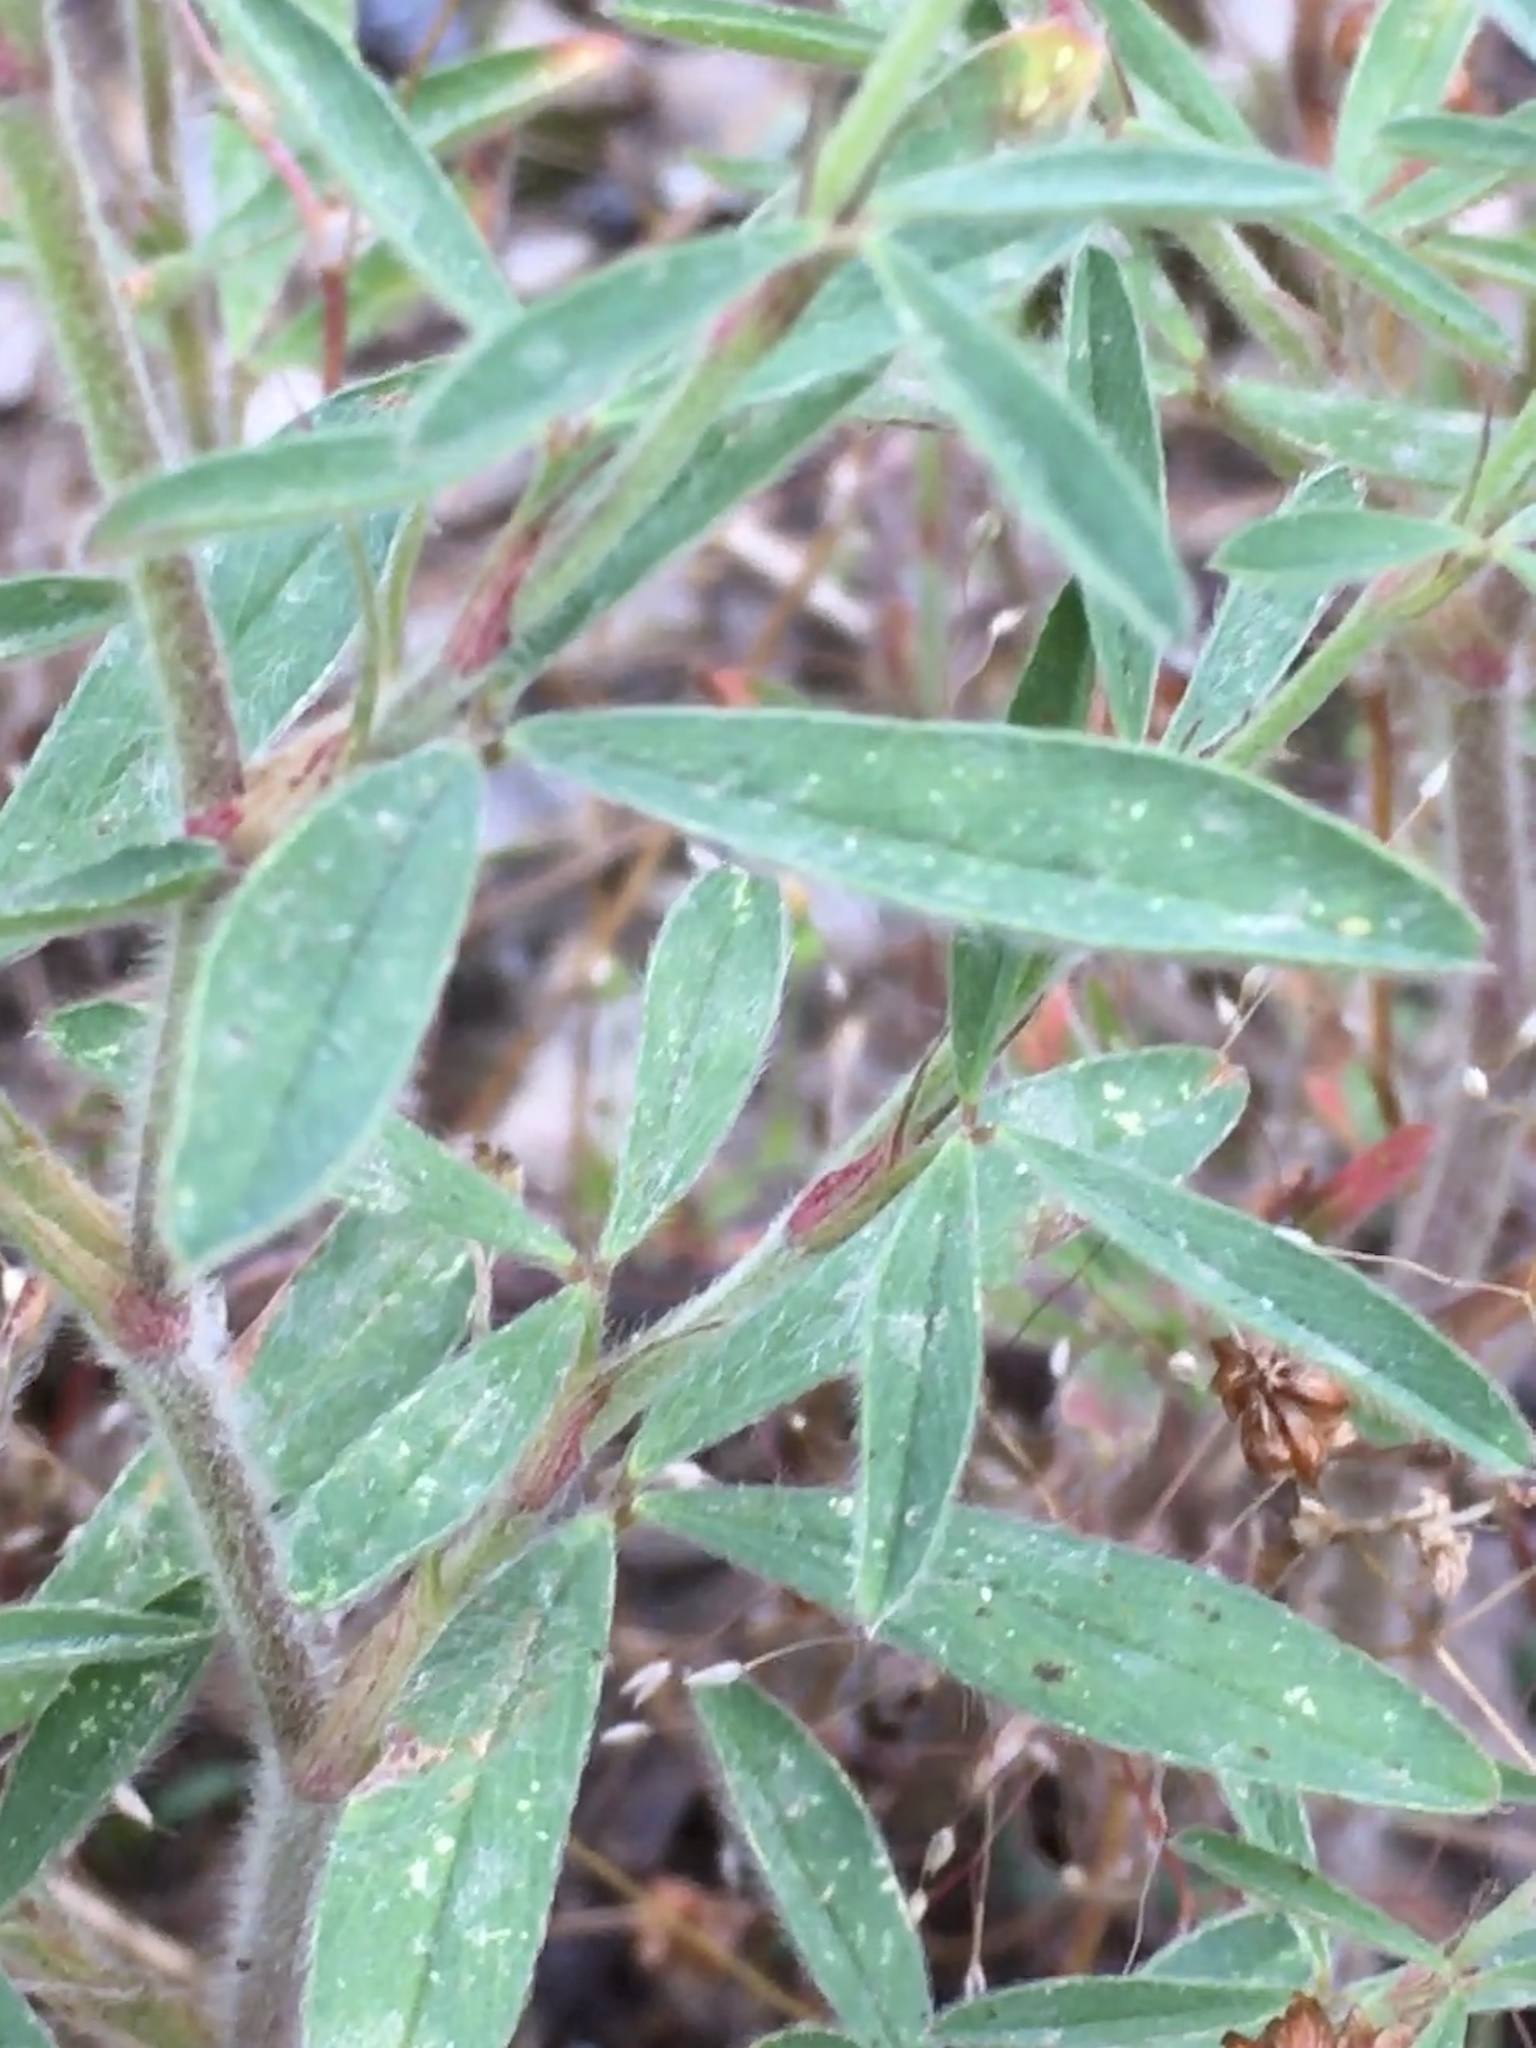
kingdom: Plantae
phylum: Tracheophyta
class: Magnoliopsida
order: Fabales
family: Fabaceae
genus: Trifolium
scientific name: Trifolium arvense
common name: Hare's-foot clover
